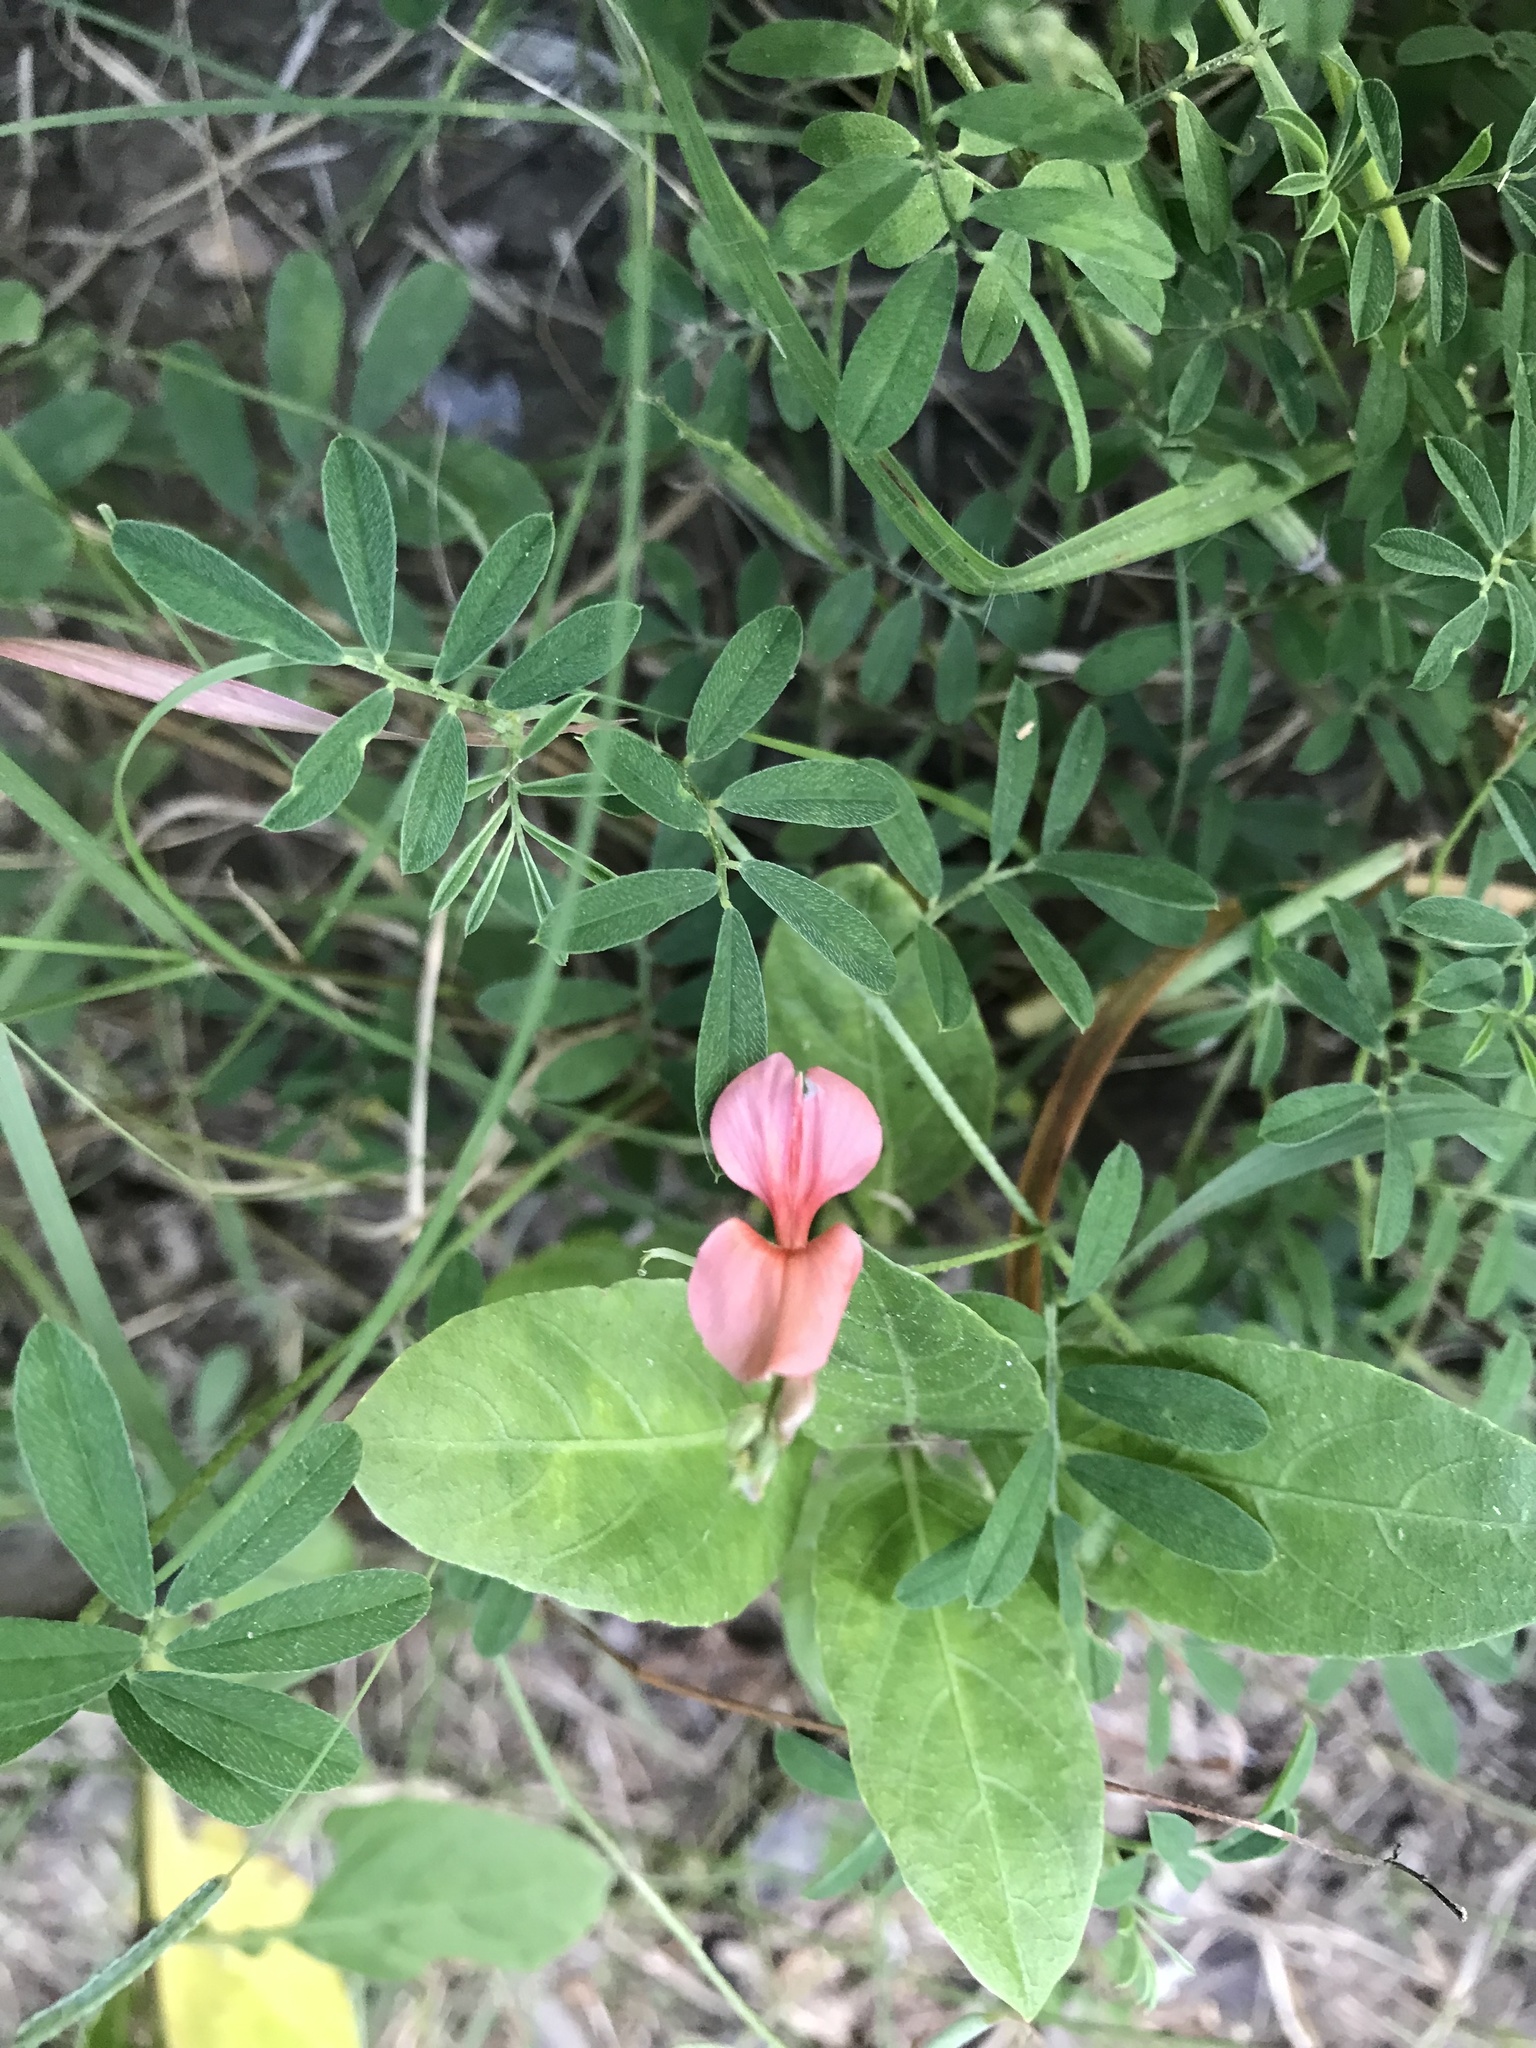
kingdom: Plantae
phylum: Tracheophyta
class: Magnoliopsida
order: Fabales
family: Fabaceae
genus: Indigofera
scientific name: Indigofera miniata
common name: Coast indigo
